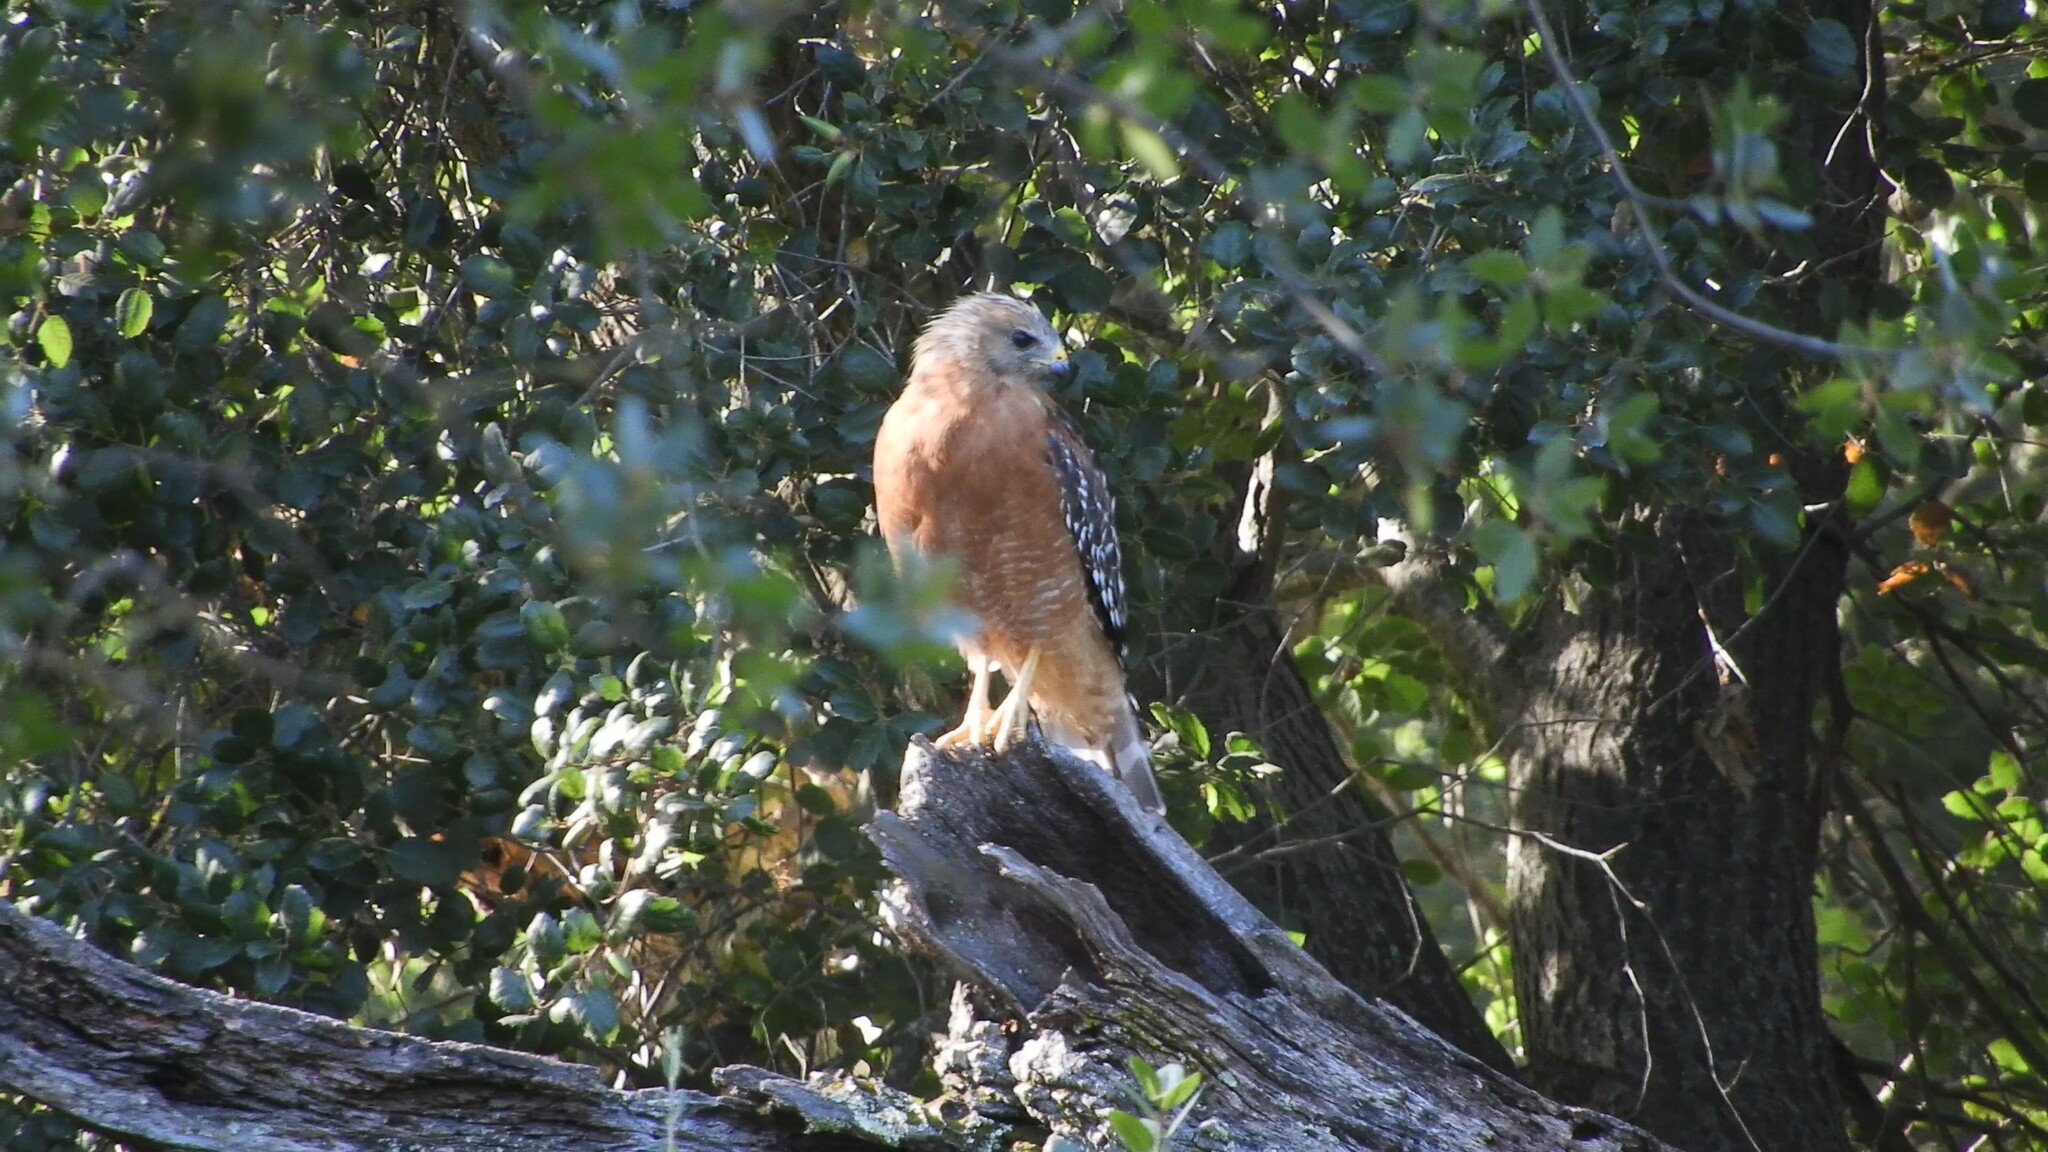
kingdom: Animalia
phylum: Chordata
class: Aves
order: Accipitriformes
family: Accipitridae
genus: Buteo
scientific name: Buteo lineatus
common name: Red-shouldered hawk
